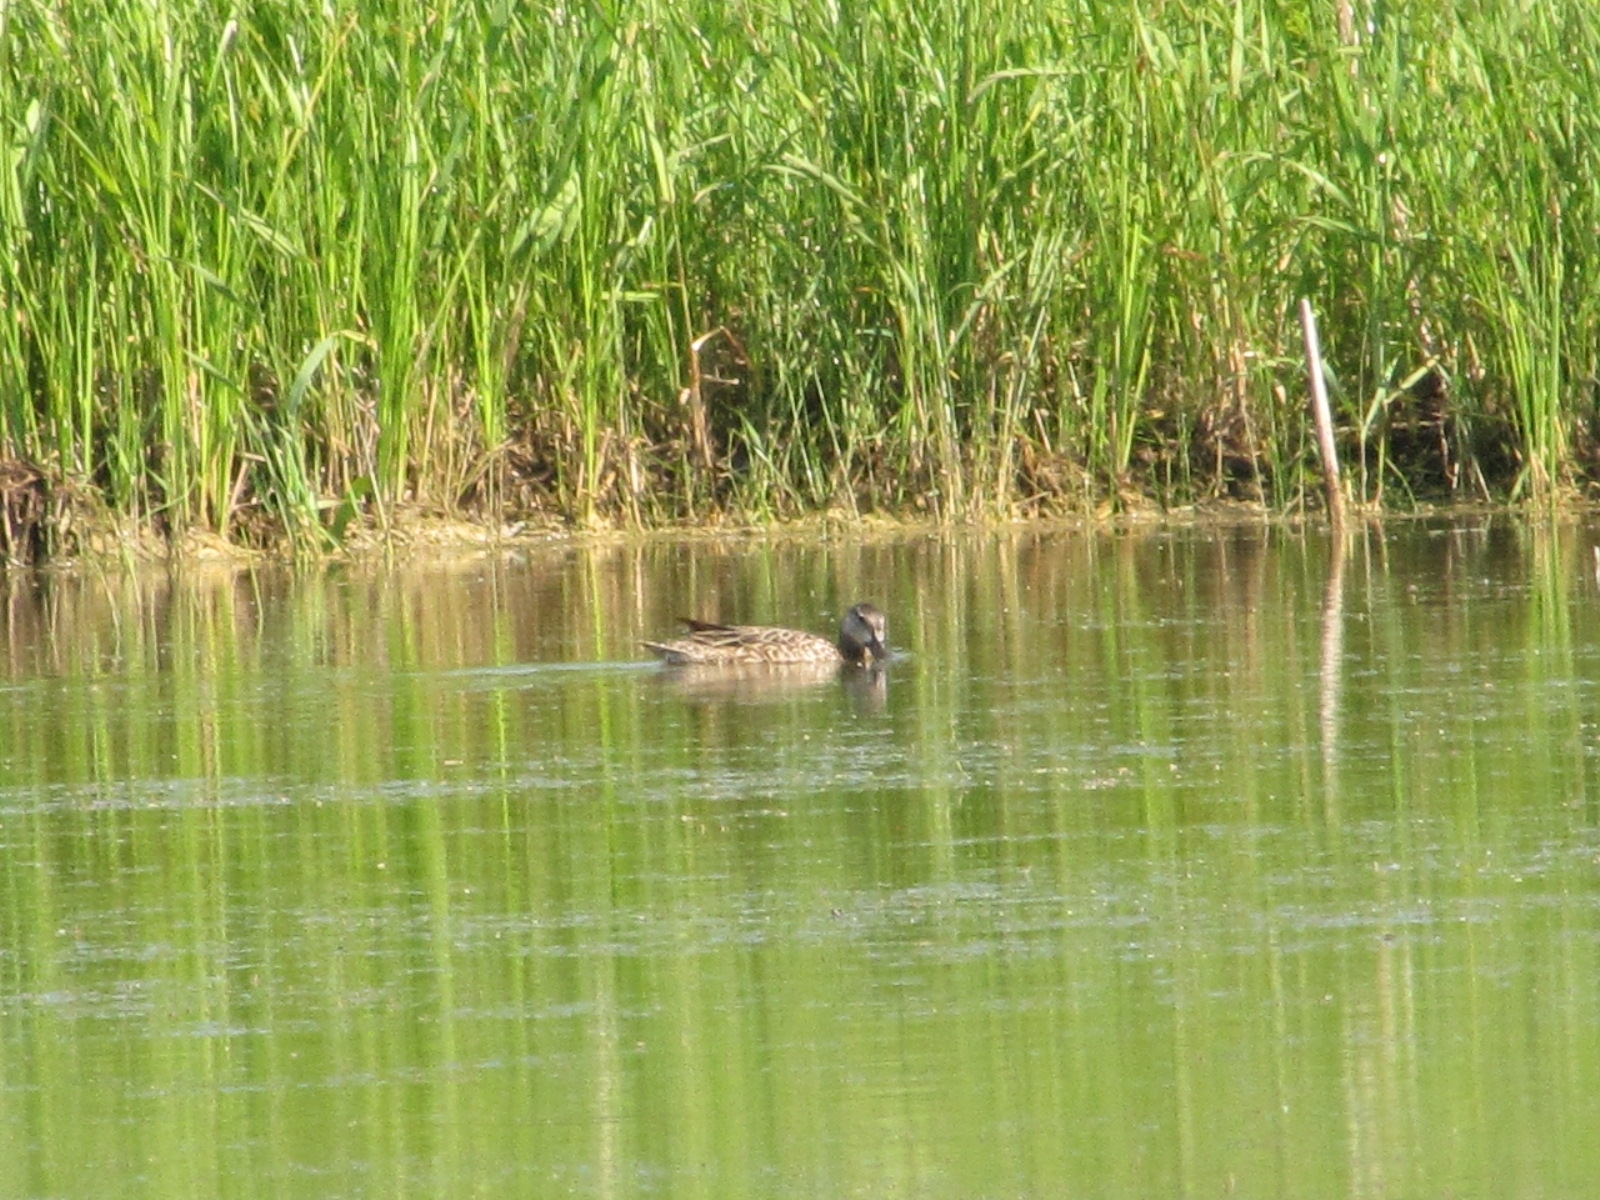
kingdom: Animalia
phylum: Chordata
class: Aves
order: Anseriformes
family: Anatidae
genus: Spatula
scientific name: Spatula discors
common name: Blue-winged teal
